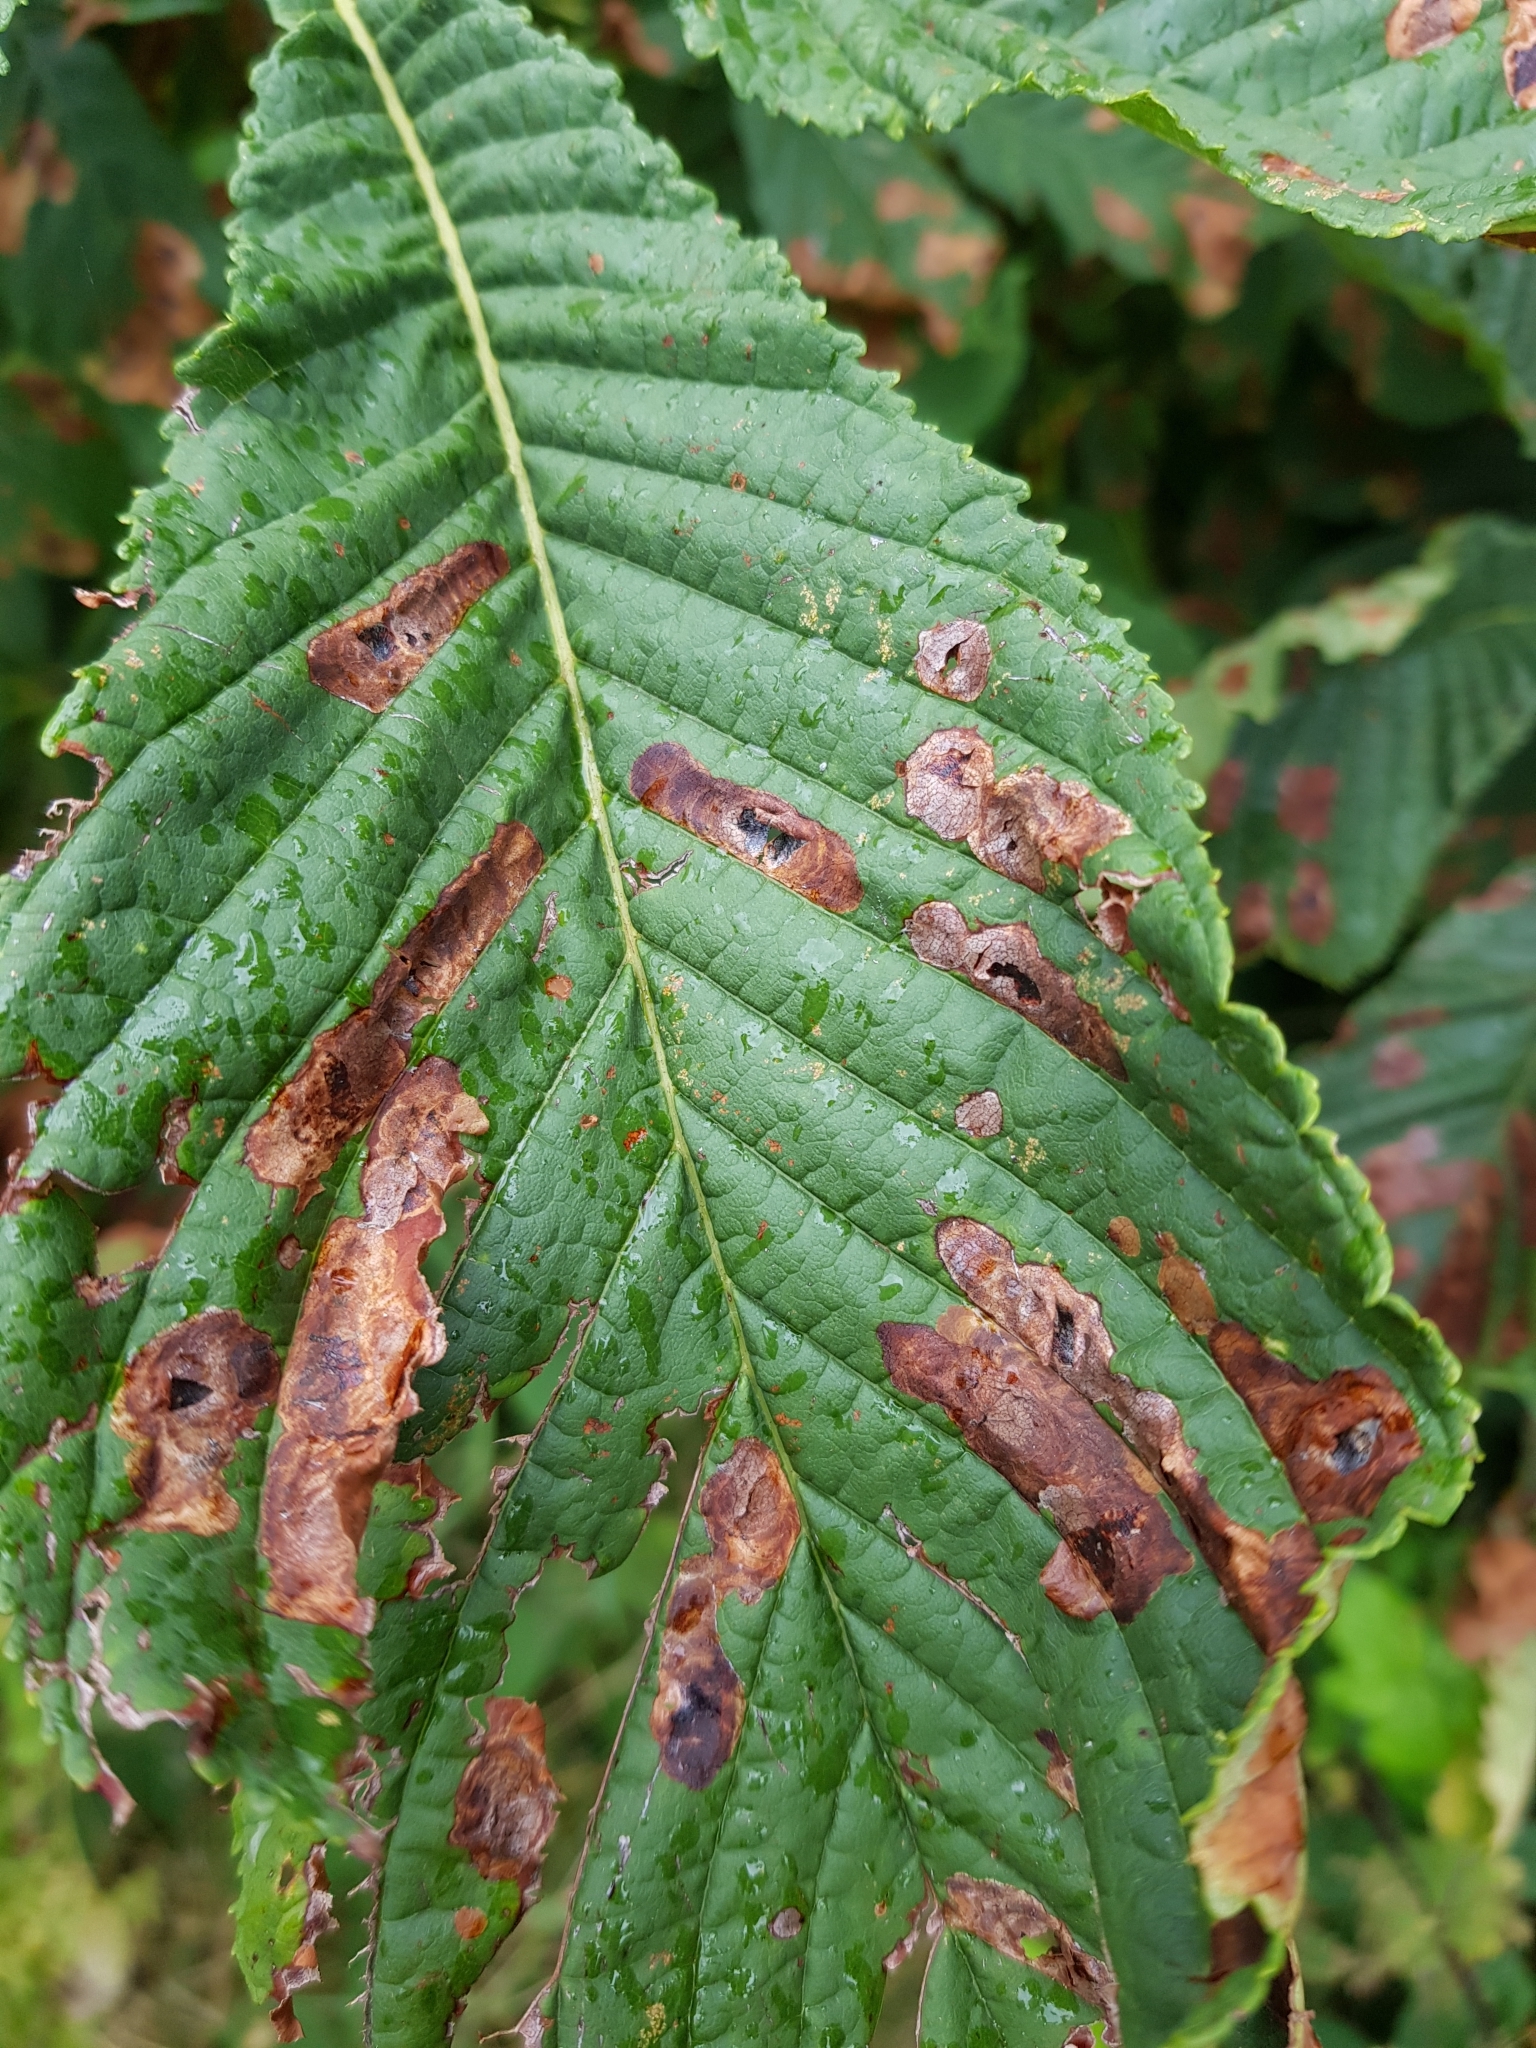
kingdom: Animalia
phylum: Arthropoda
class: Insecta
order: Lepidoptera
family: Gracillariidae
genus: Cameraria
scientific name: Cameraria ohridella
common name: Horse-chestnut leaf-miner
